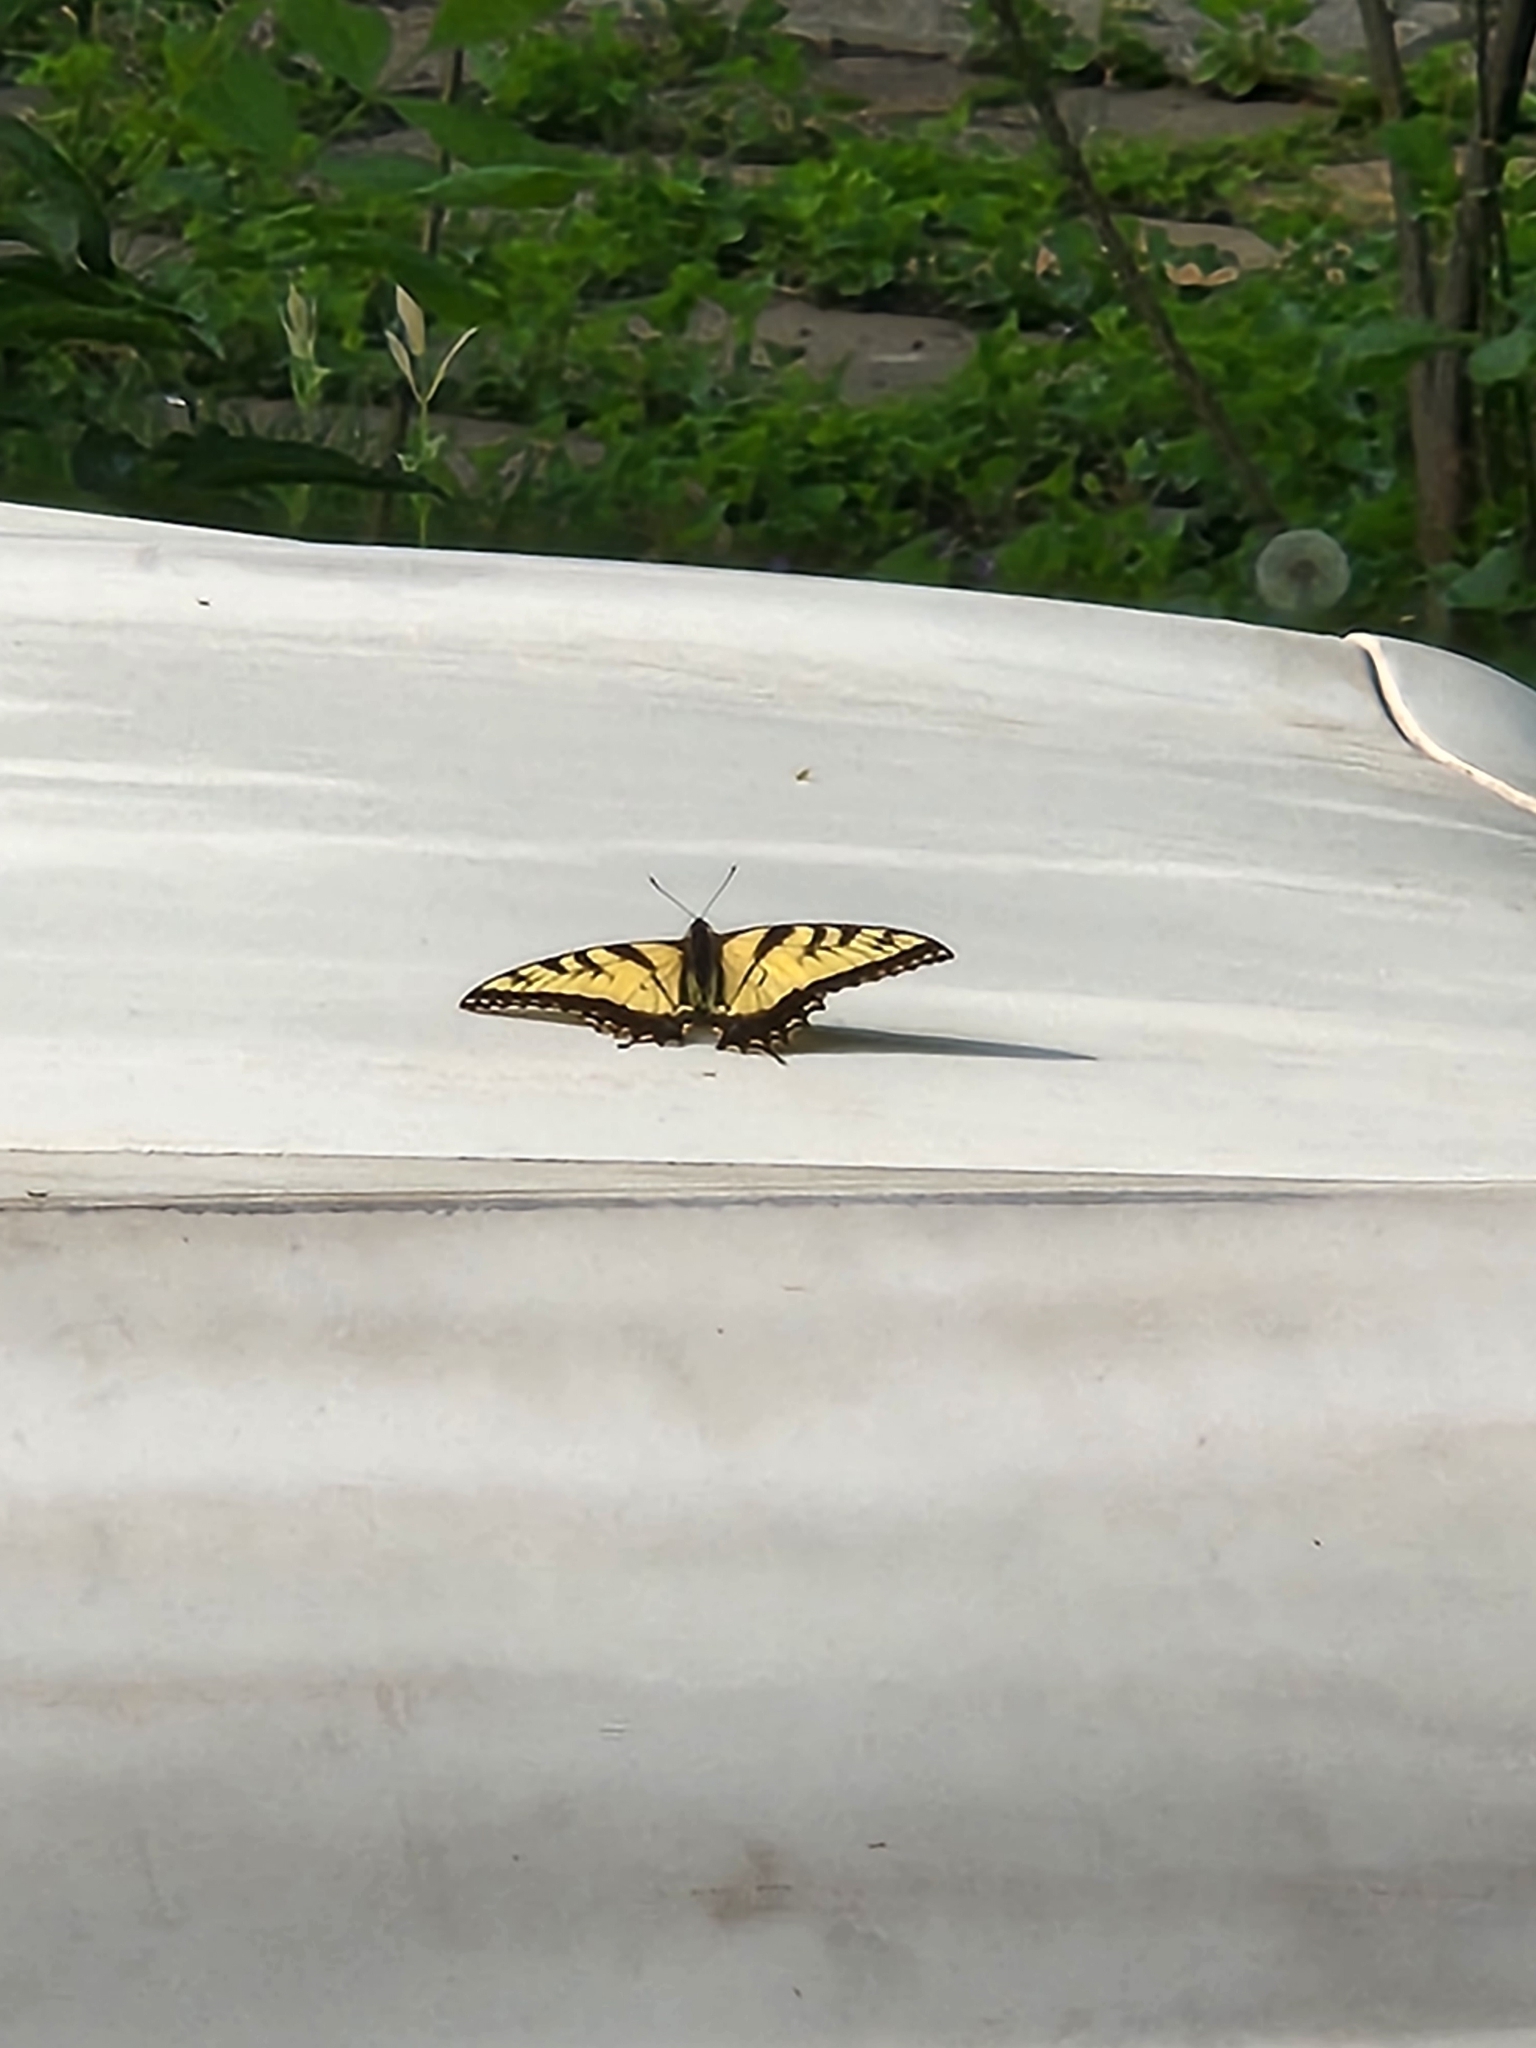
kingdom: Animalia
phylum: Arthropoda
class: Insecta
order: Lepidoptera
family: Papilionidae
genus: Papilio
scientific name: Papilio glaucus
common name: Tiger swallowtail
